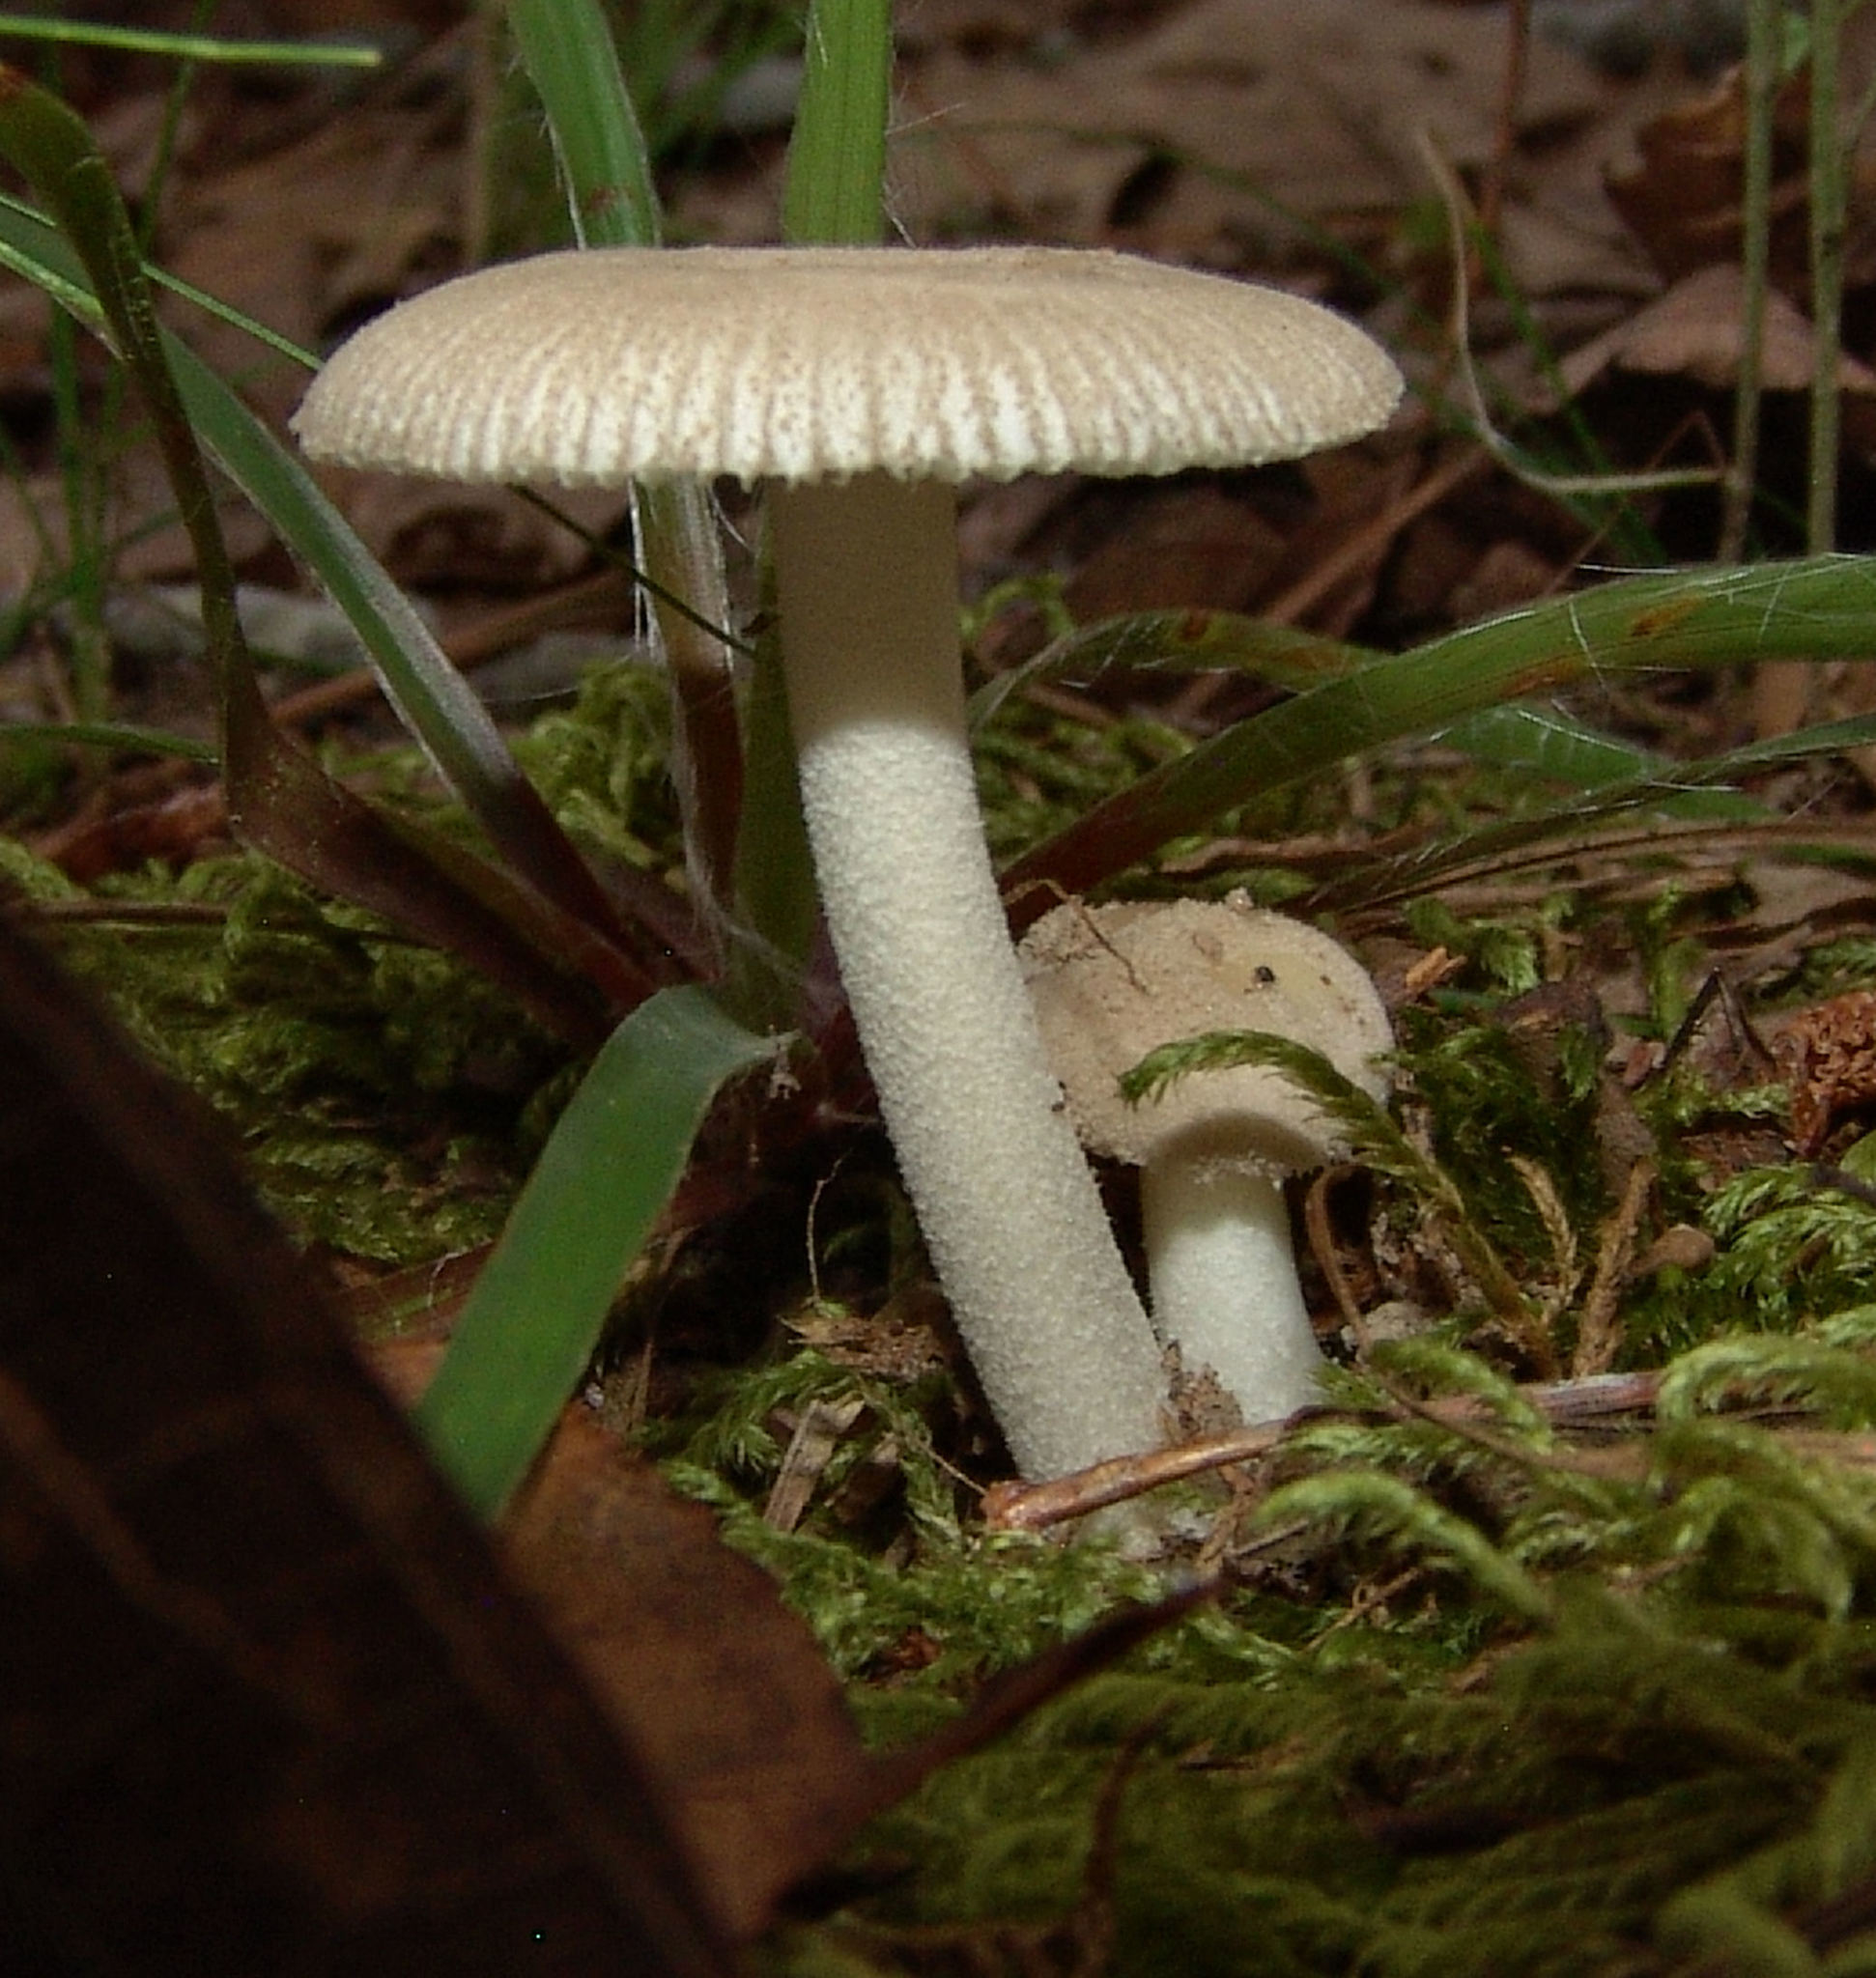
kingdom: Fungi
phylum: Basidiomycota
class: Agaricomycetes
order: Agaricales
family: Amanitaceae
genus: Amanita
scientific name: Amanita farinosa
